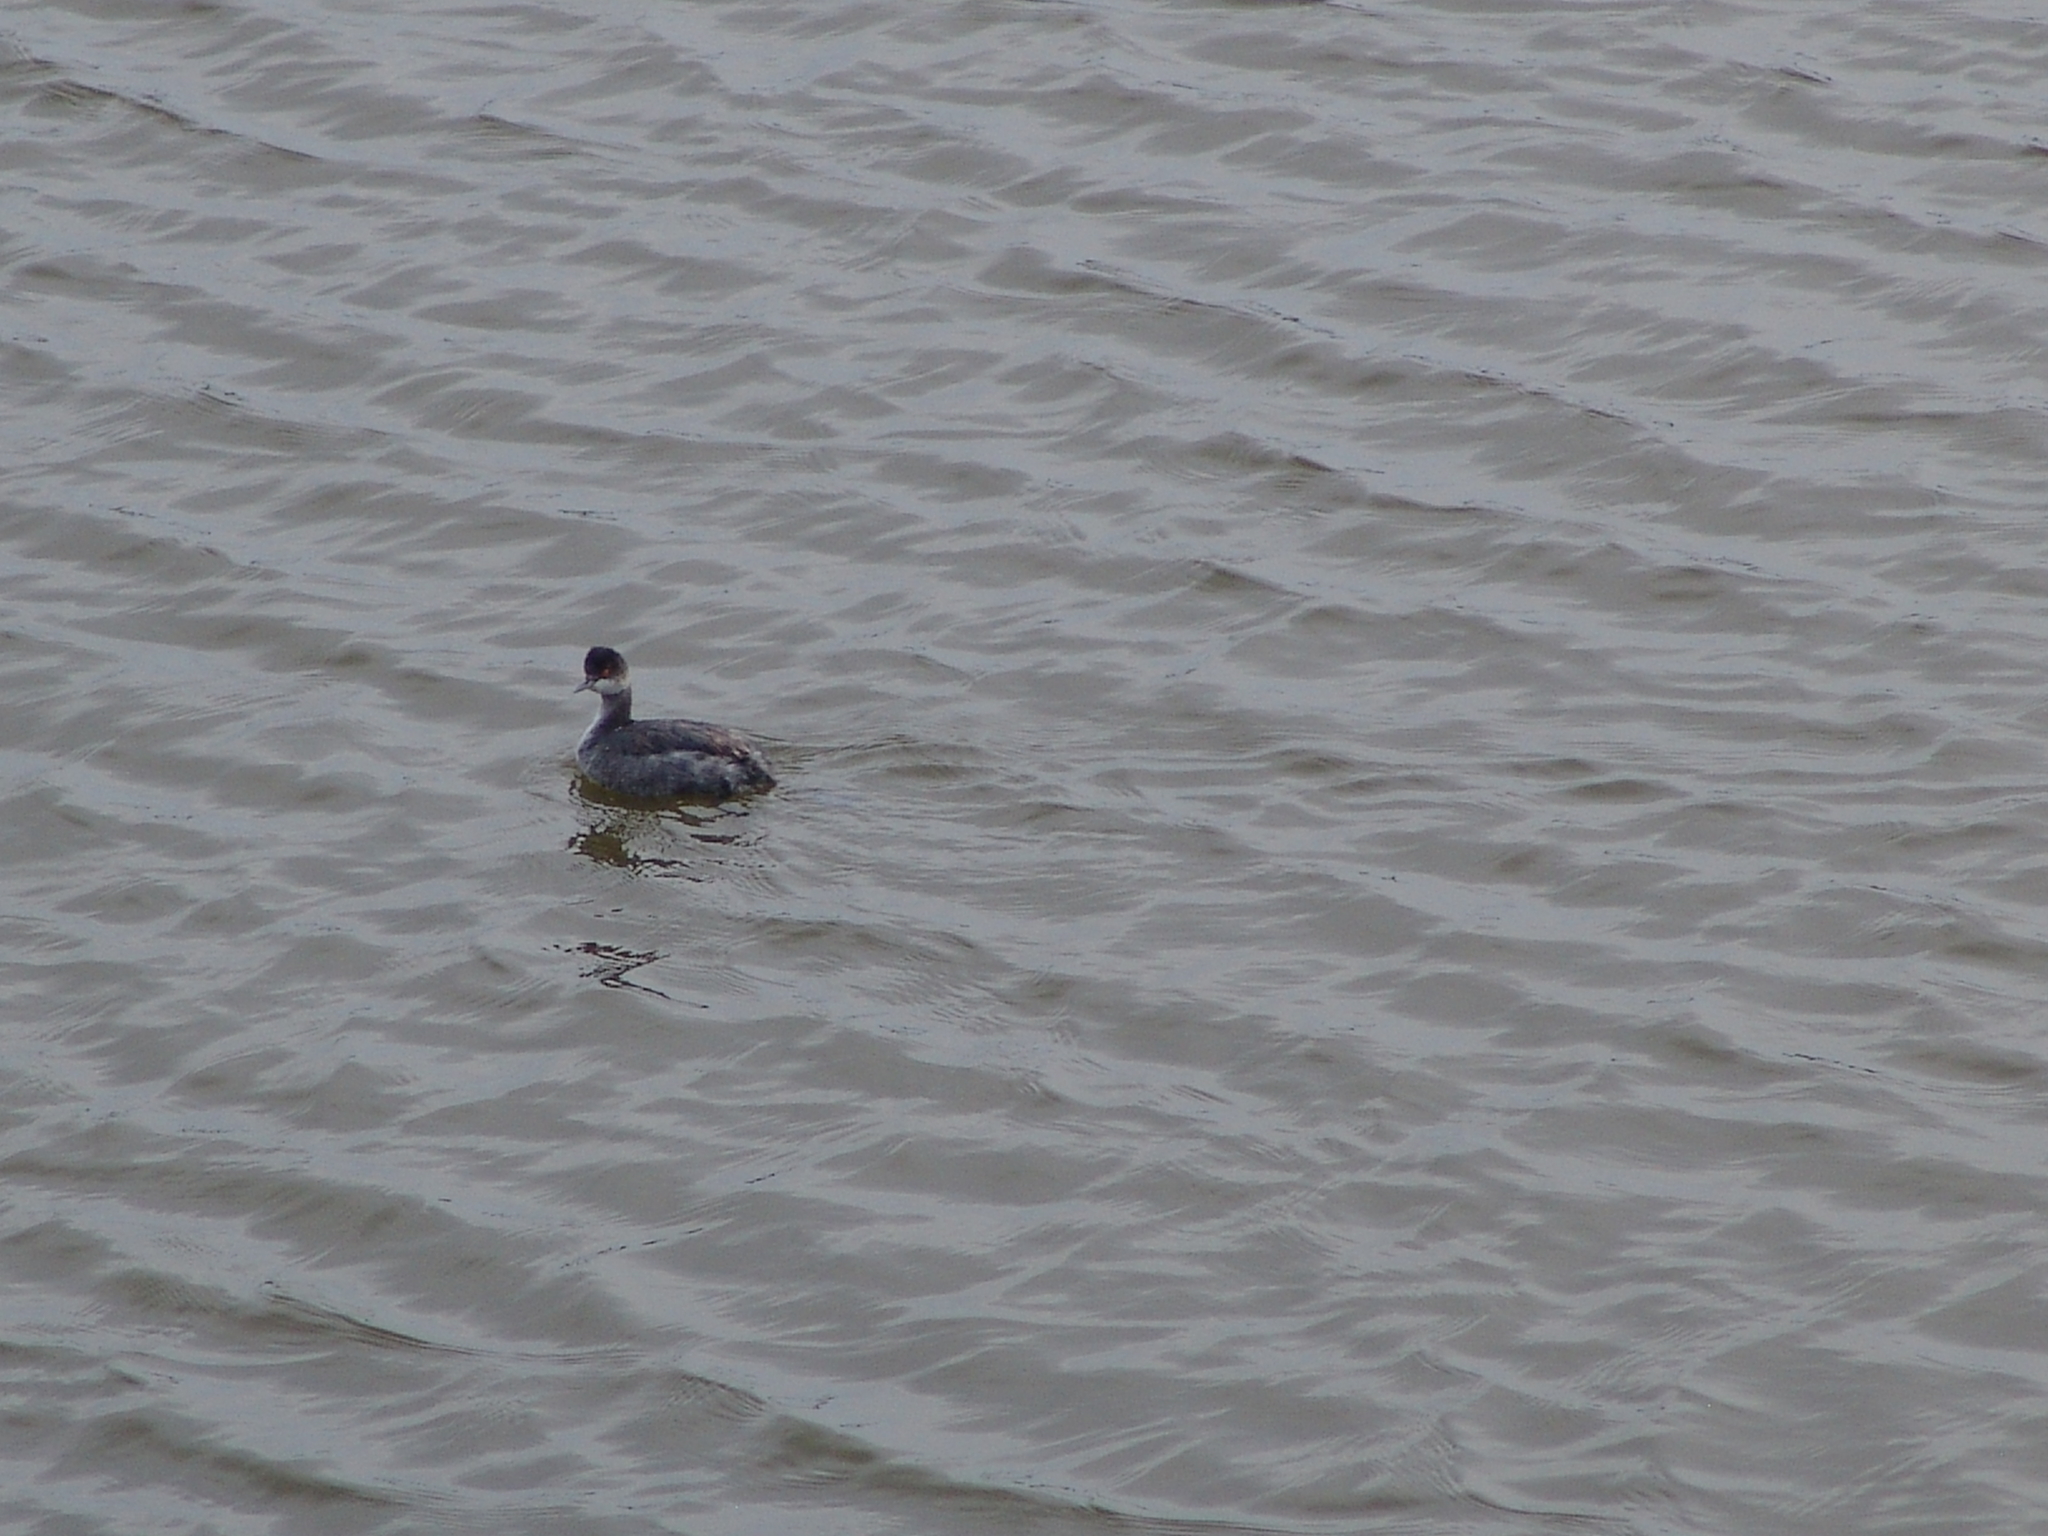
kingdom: Animalia
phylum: Chordata
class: Aves
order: Podicipediformes
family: Podicipedidae
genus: Podiceps
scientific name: Podiceps nigricollis
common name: Black-necked grebe
